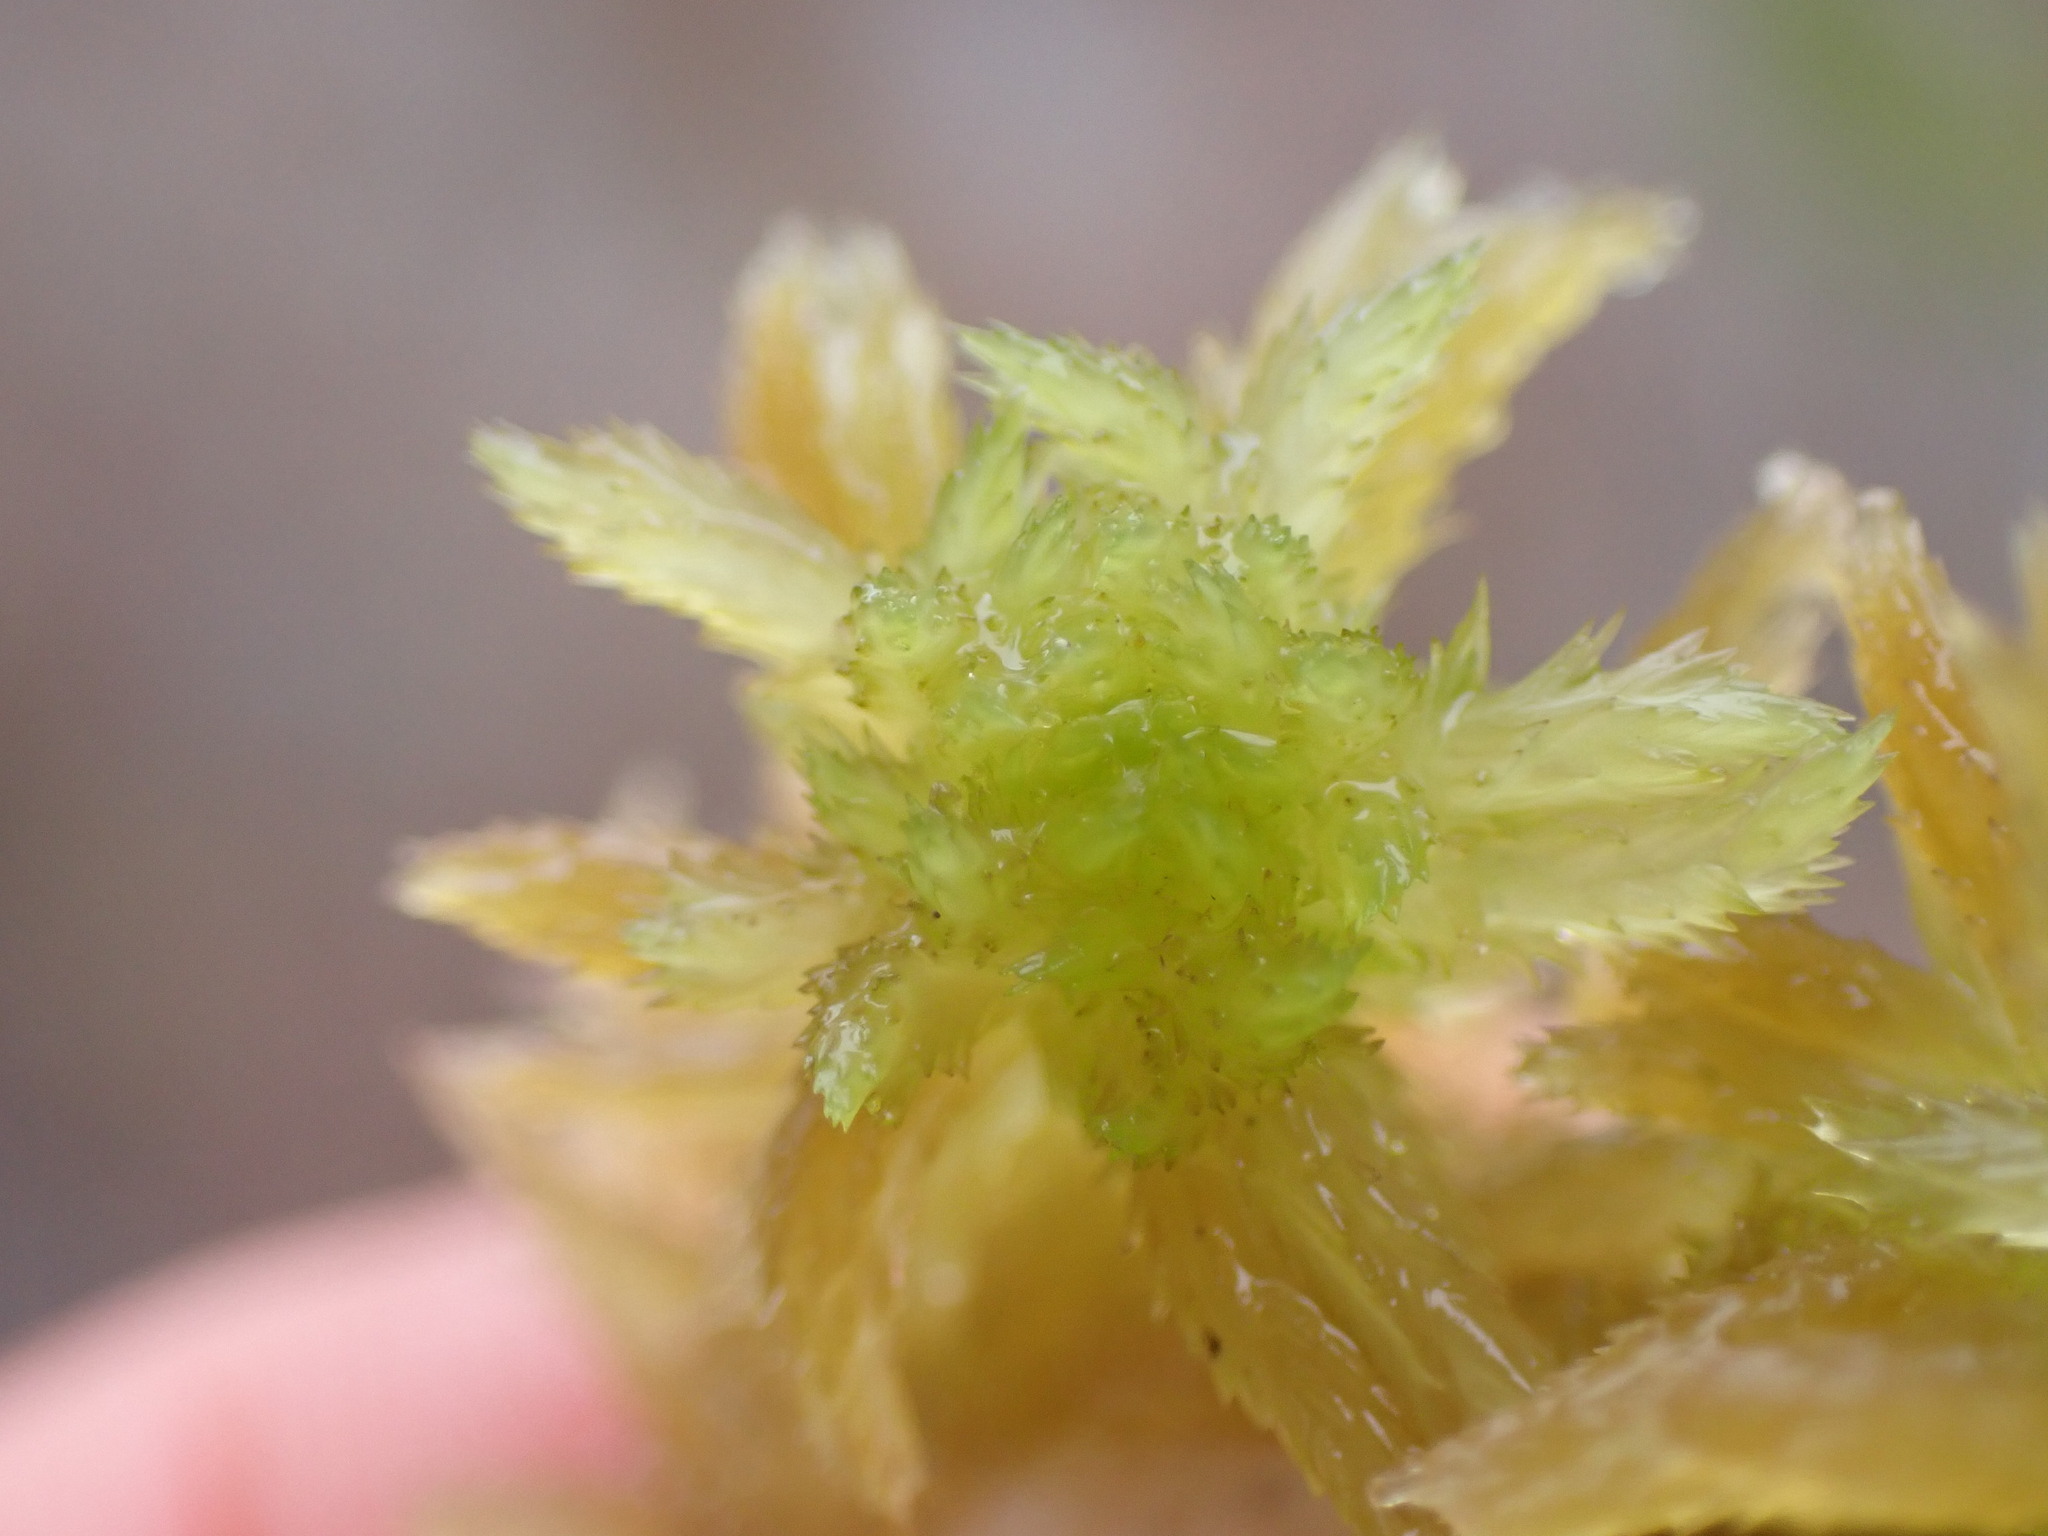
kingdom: Plantae
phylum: Bryophyta
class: Sphagnopsida
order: Sphagnales
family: Sphagnaceae
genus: Sphagnum
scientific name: Sphagnum pacificum
